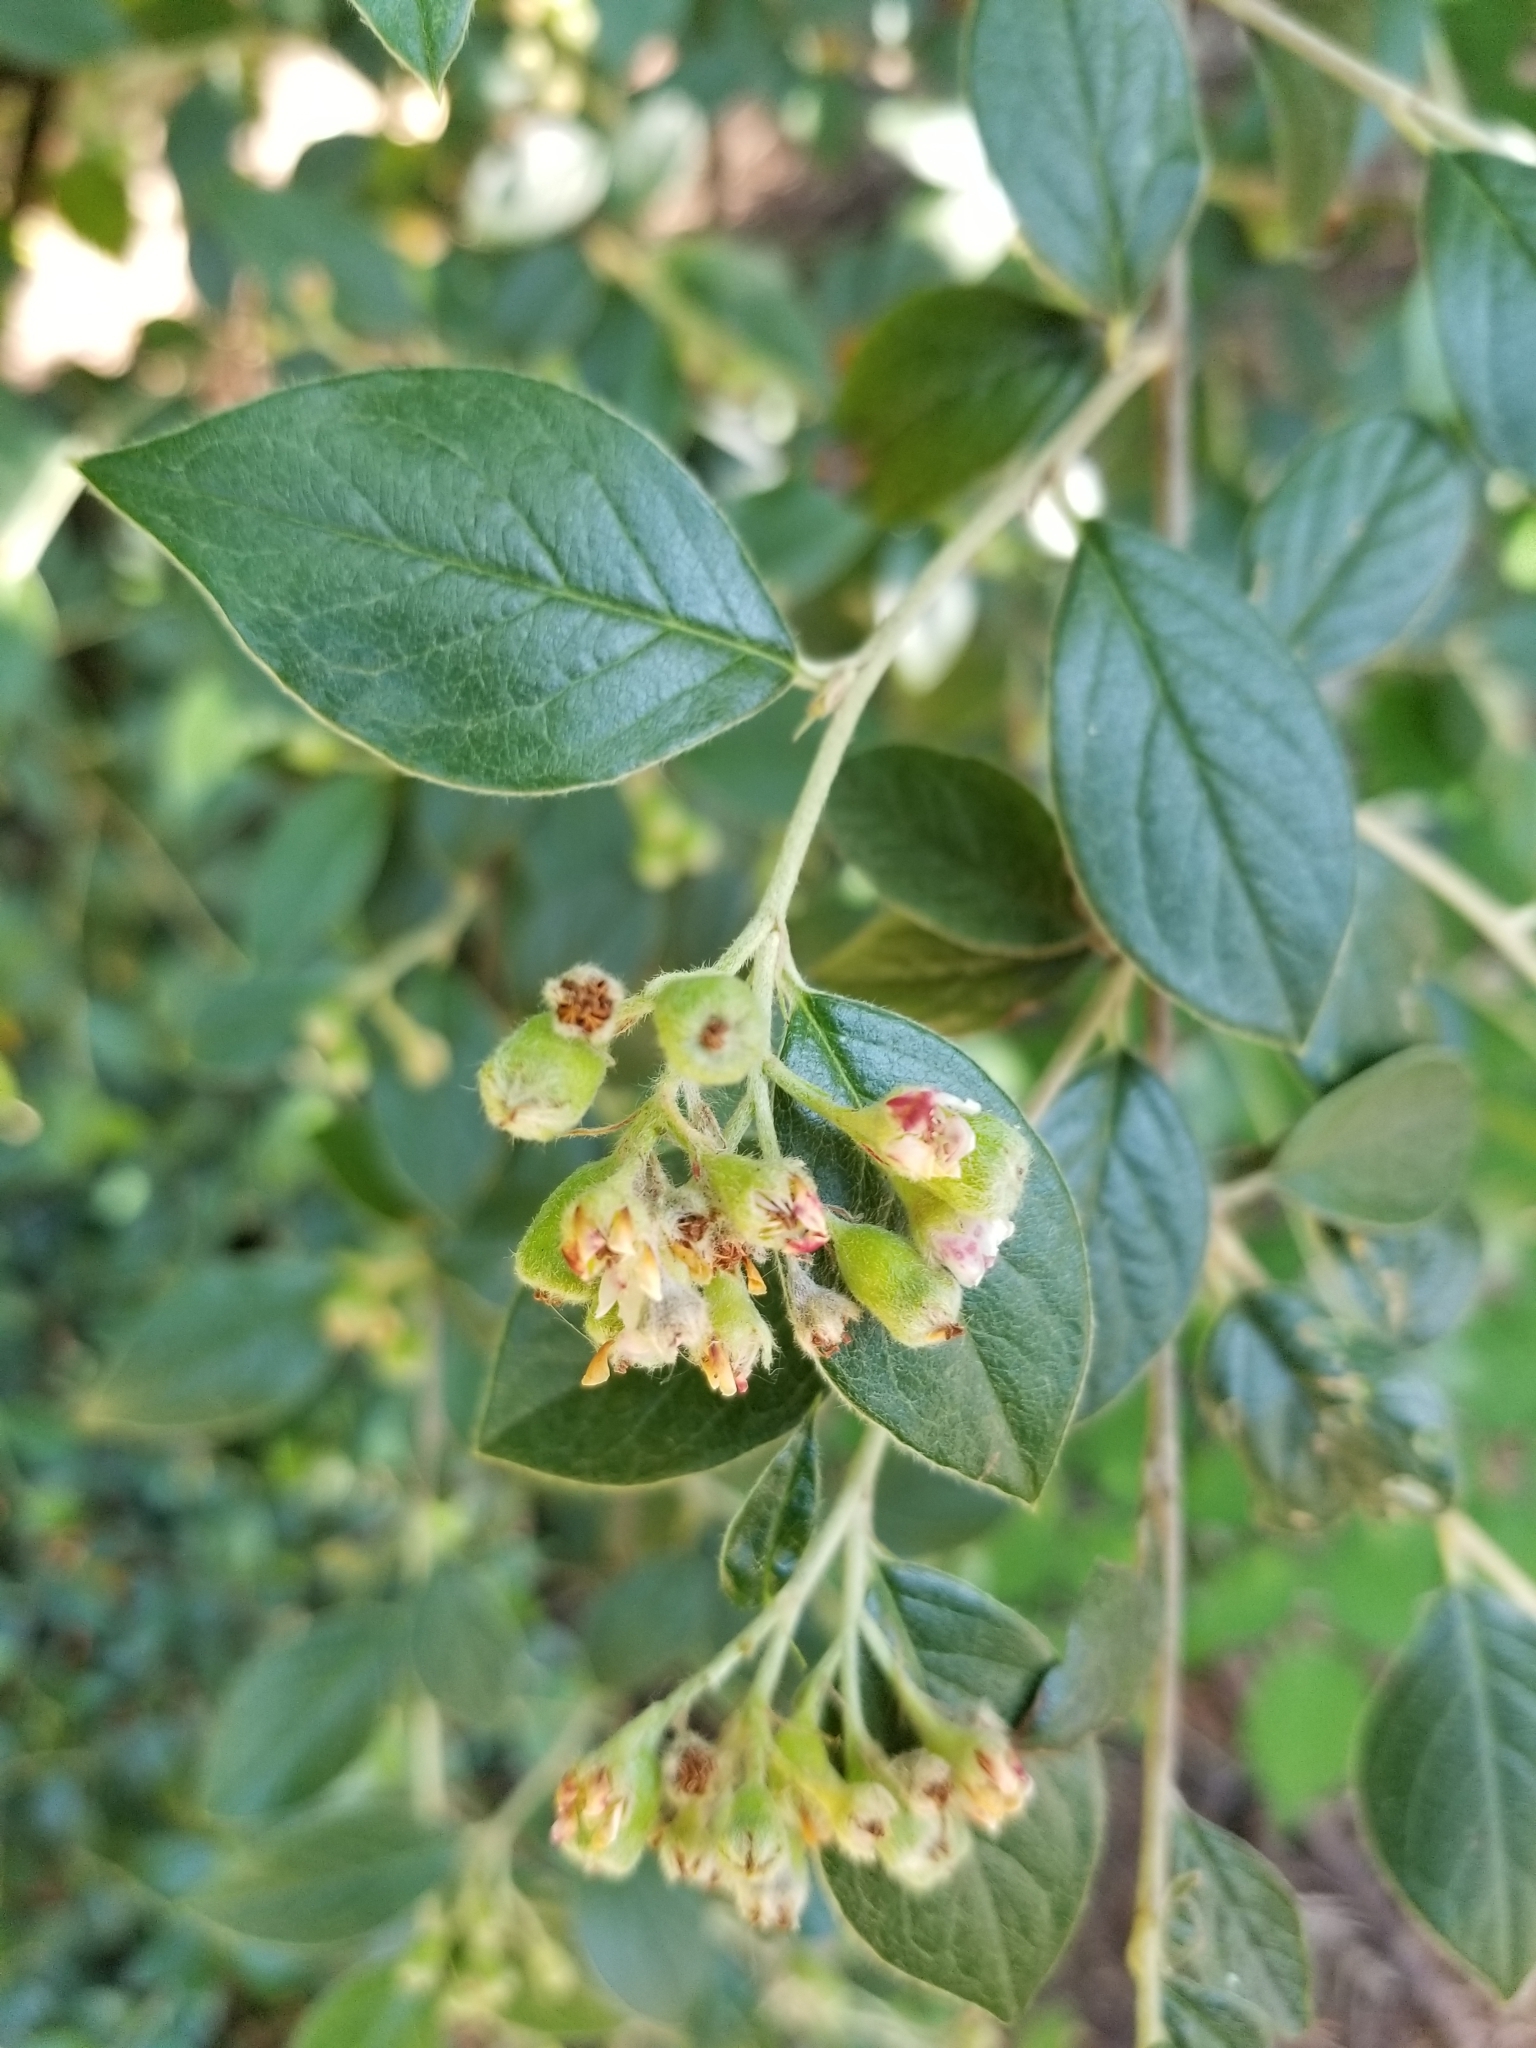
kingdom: Plantae
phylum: Tracheophyta
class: Magnoliopsida
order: Rosales
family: Rosaceae
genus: Cotoneaster
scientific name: Cotoneaster franchetii
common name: Franchet's cotoneaster
